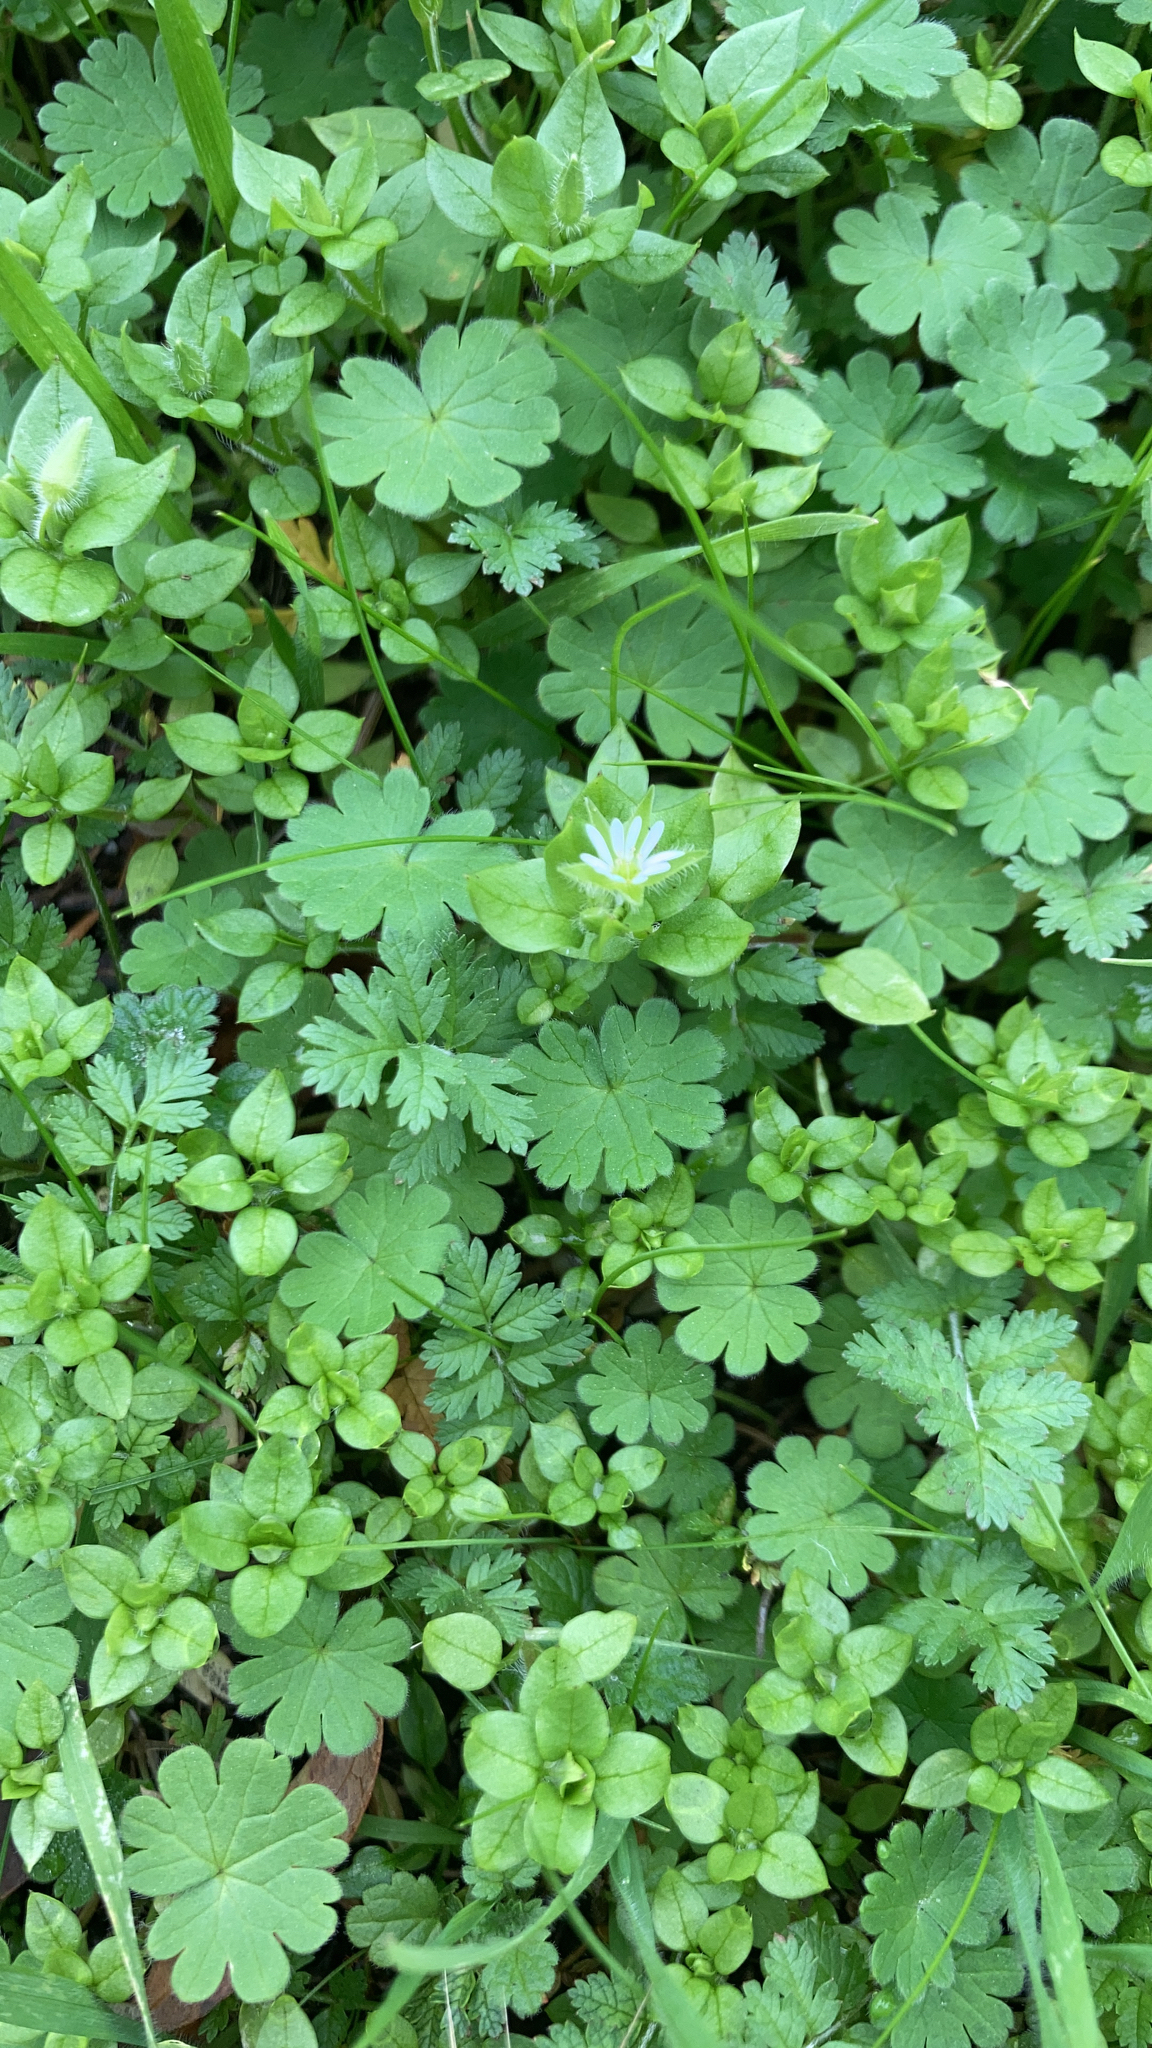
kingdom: Plantae
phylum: Tracheophyta
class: Magnoliopsida
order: Caryophyllales
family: Caryophyllaceae
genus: Stellaria
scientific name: Stellaria media
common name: Common chickweed
